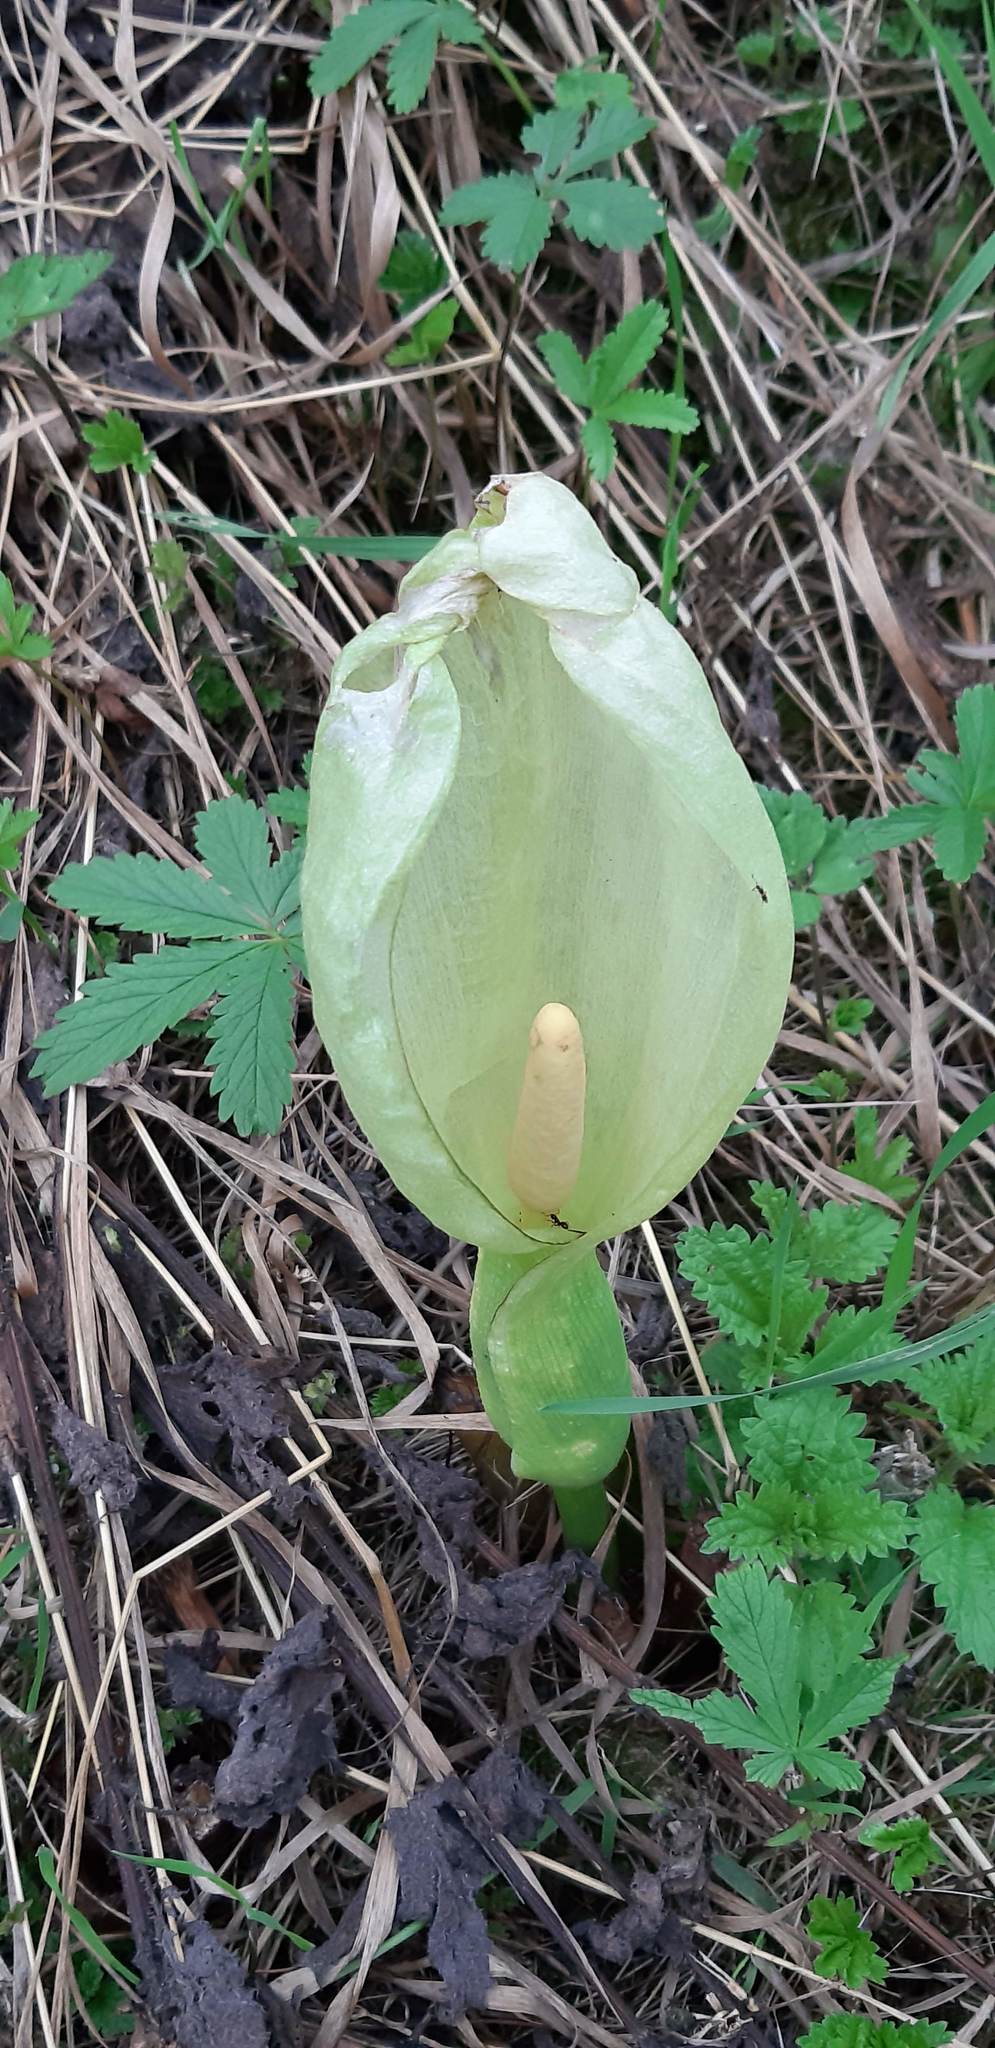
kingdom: Plantae
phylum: Tracheophyta
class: Liliopsida
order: Alismatales
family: Araceae
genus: Arum
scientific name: Arum italicum
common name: Italian lords-and-ladies
